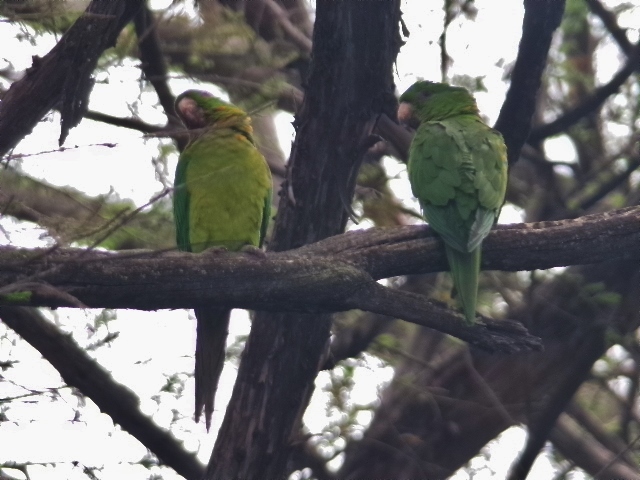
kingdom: Animalia
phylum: Chordata
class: Aves
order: Psittaciformes
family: Psittacidae
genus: Aratinga
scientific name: Aratinga holochlora
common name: Green parakeet
